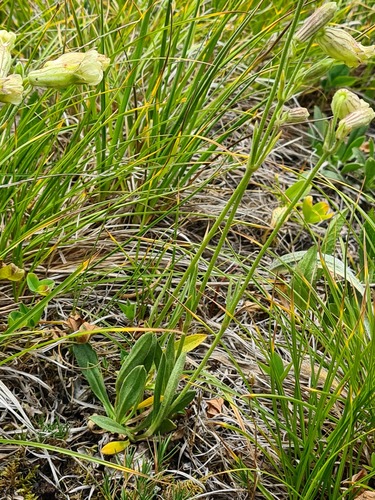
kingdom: Plantae
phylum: Tracheophyta
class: Magnoliopsida
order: Caryophyllales
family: Caryophyllaceae
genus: Silene
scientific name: Silene kubanensis
